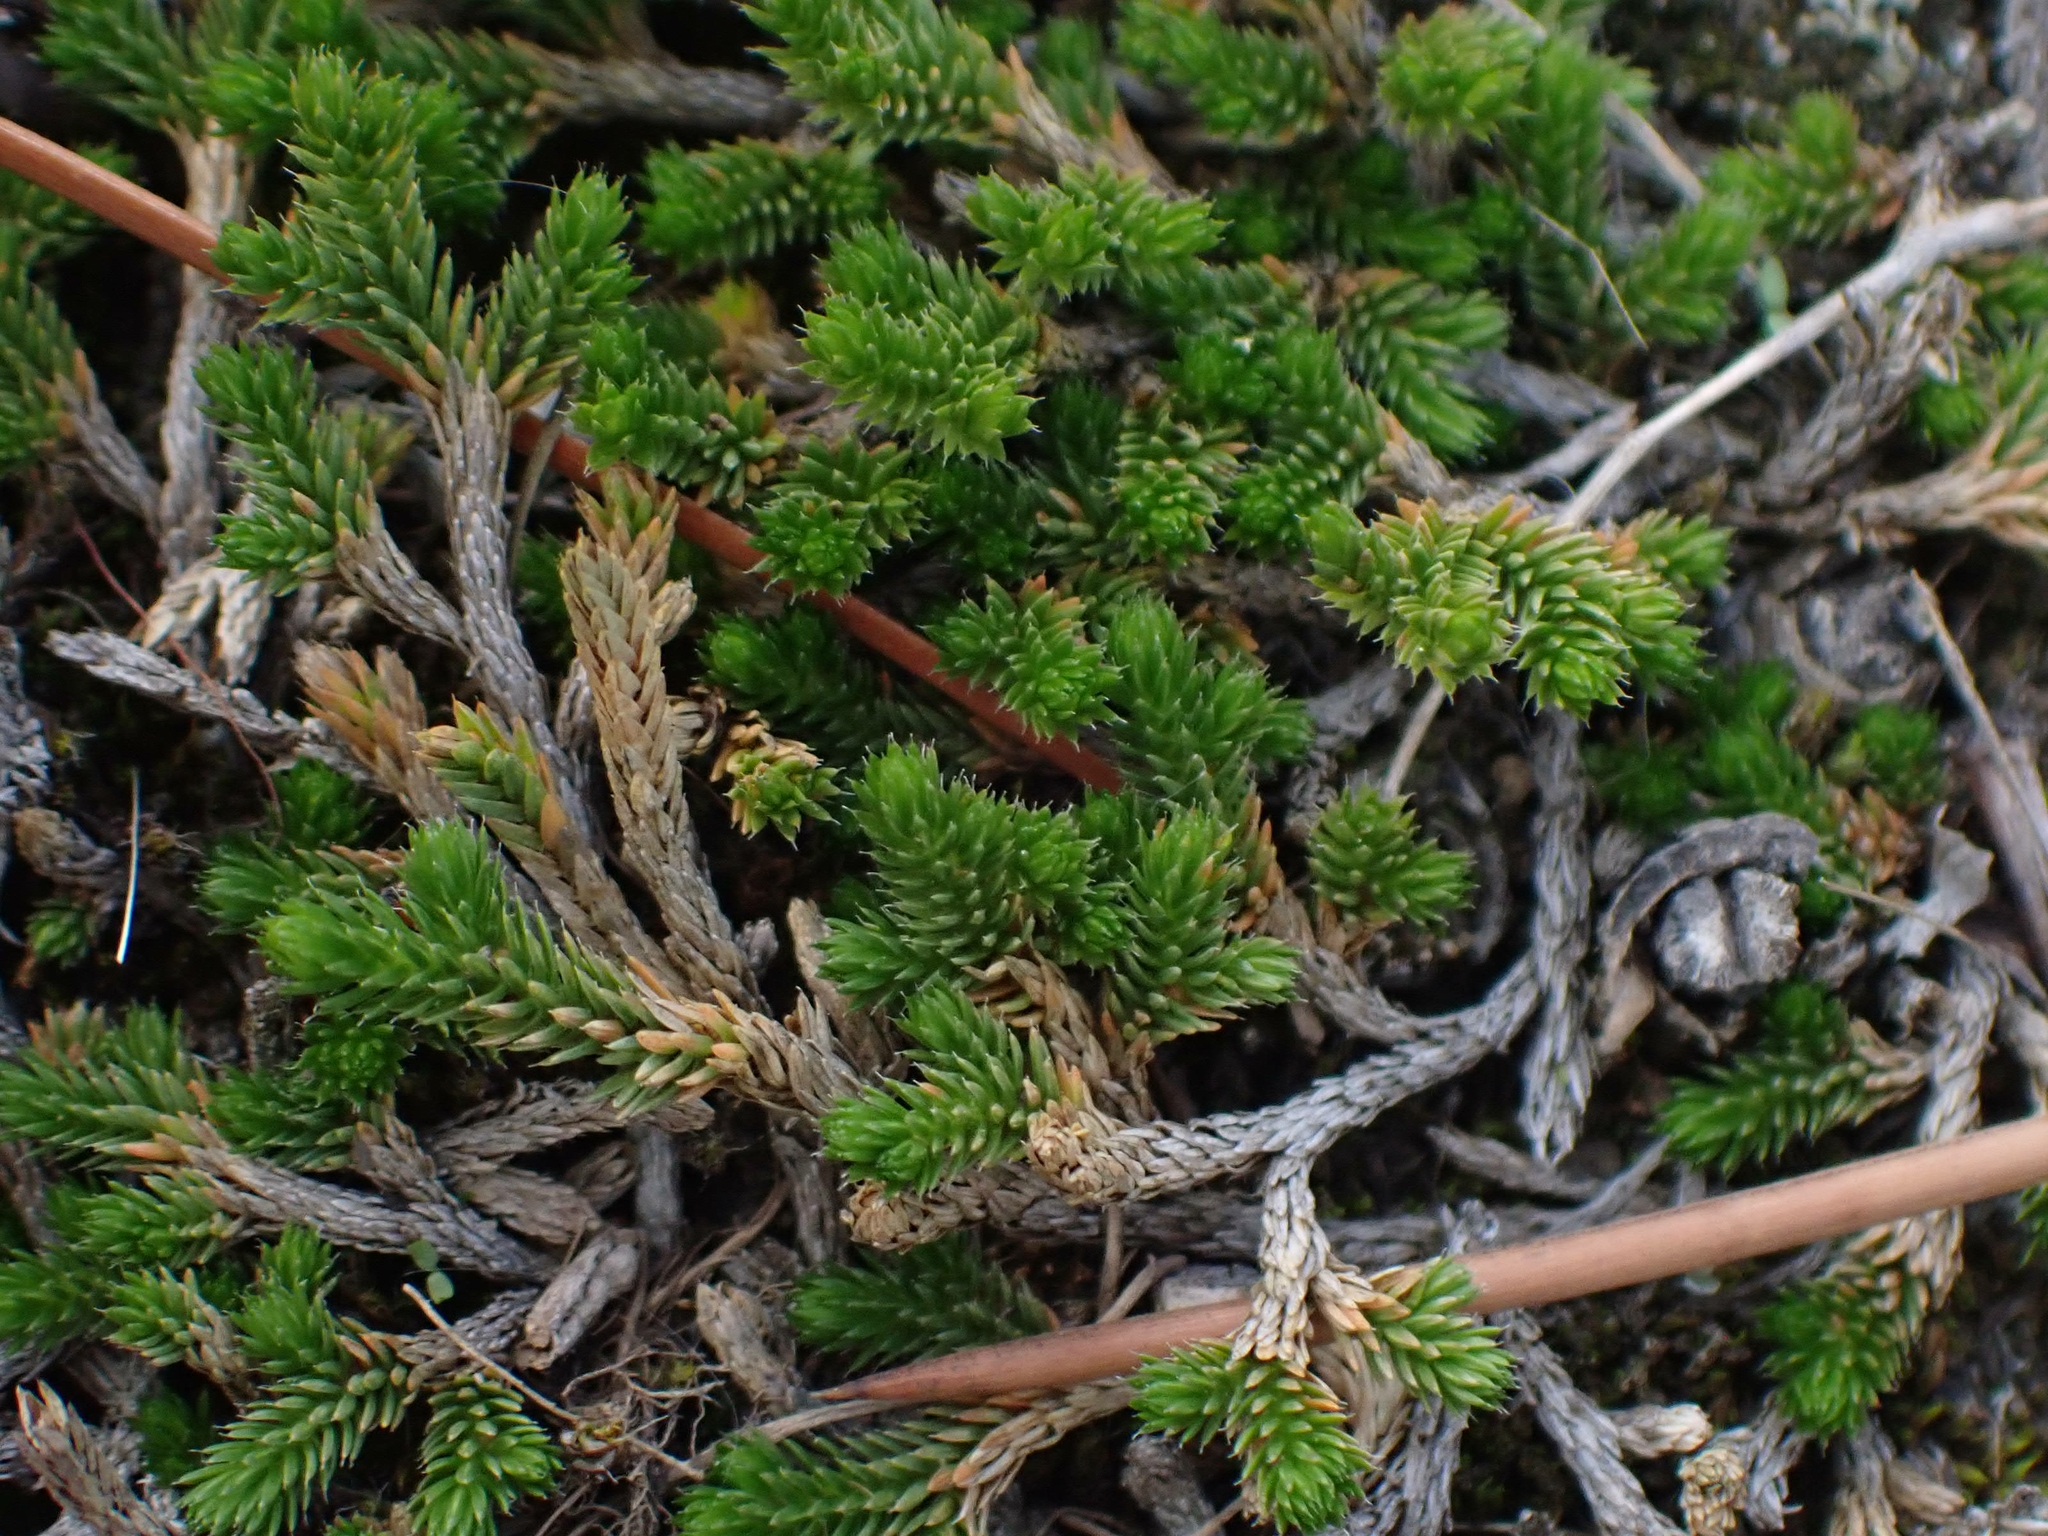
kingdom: Plantae
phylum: Tracheophyta
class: Lycopodiopsida
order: Selaginellales
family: Selaginellaceae
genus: Selaginella
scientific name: Selaginella wallacei
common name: Wallace's selaginella
